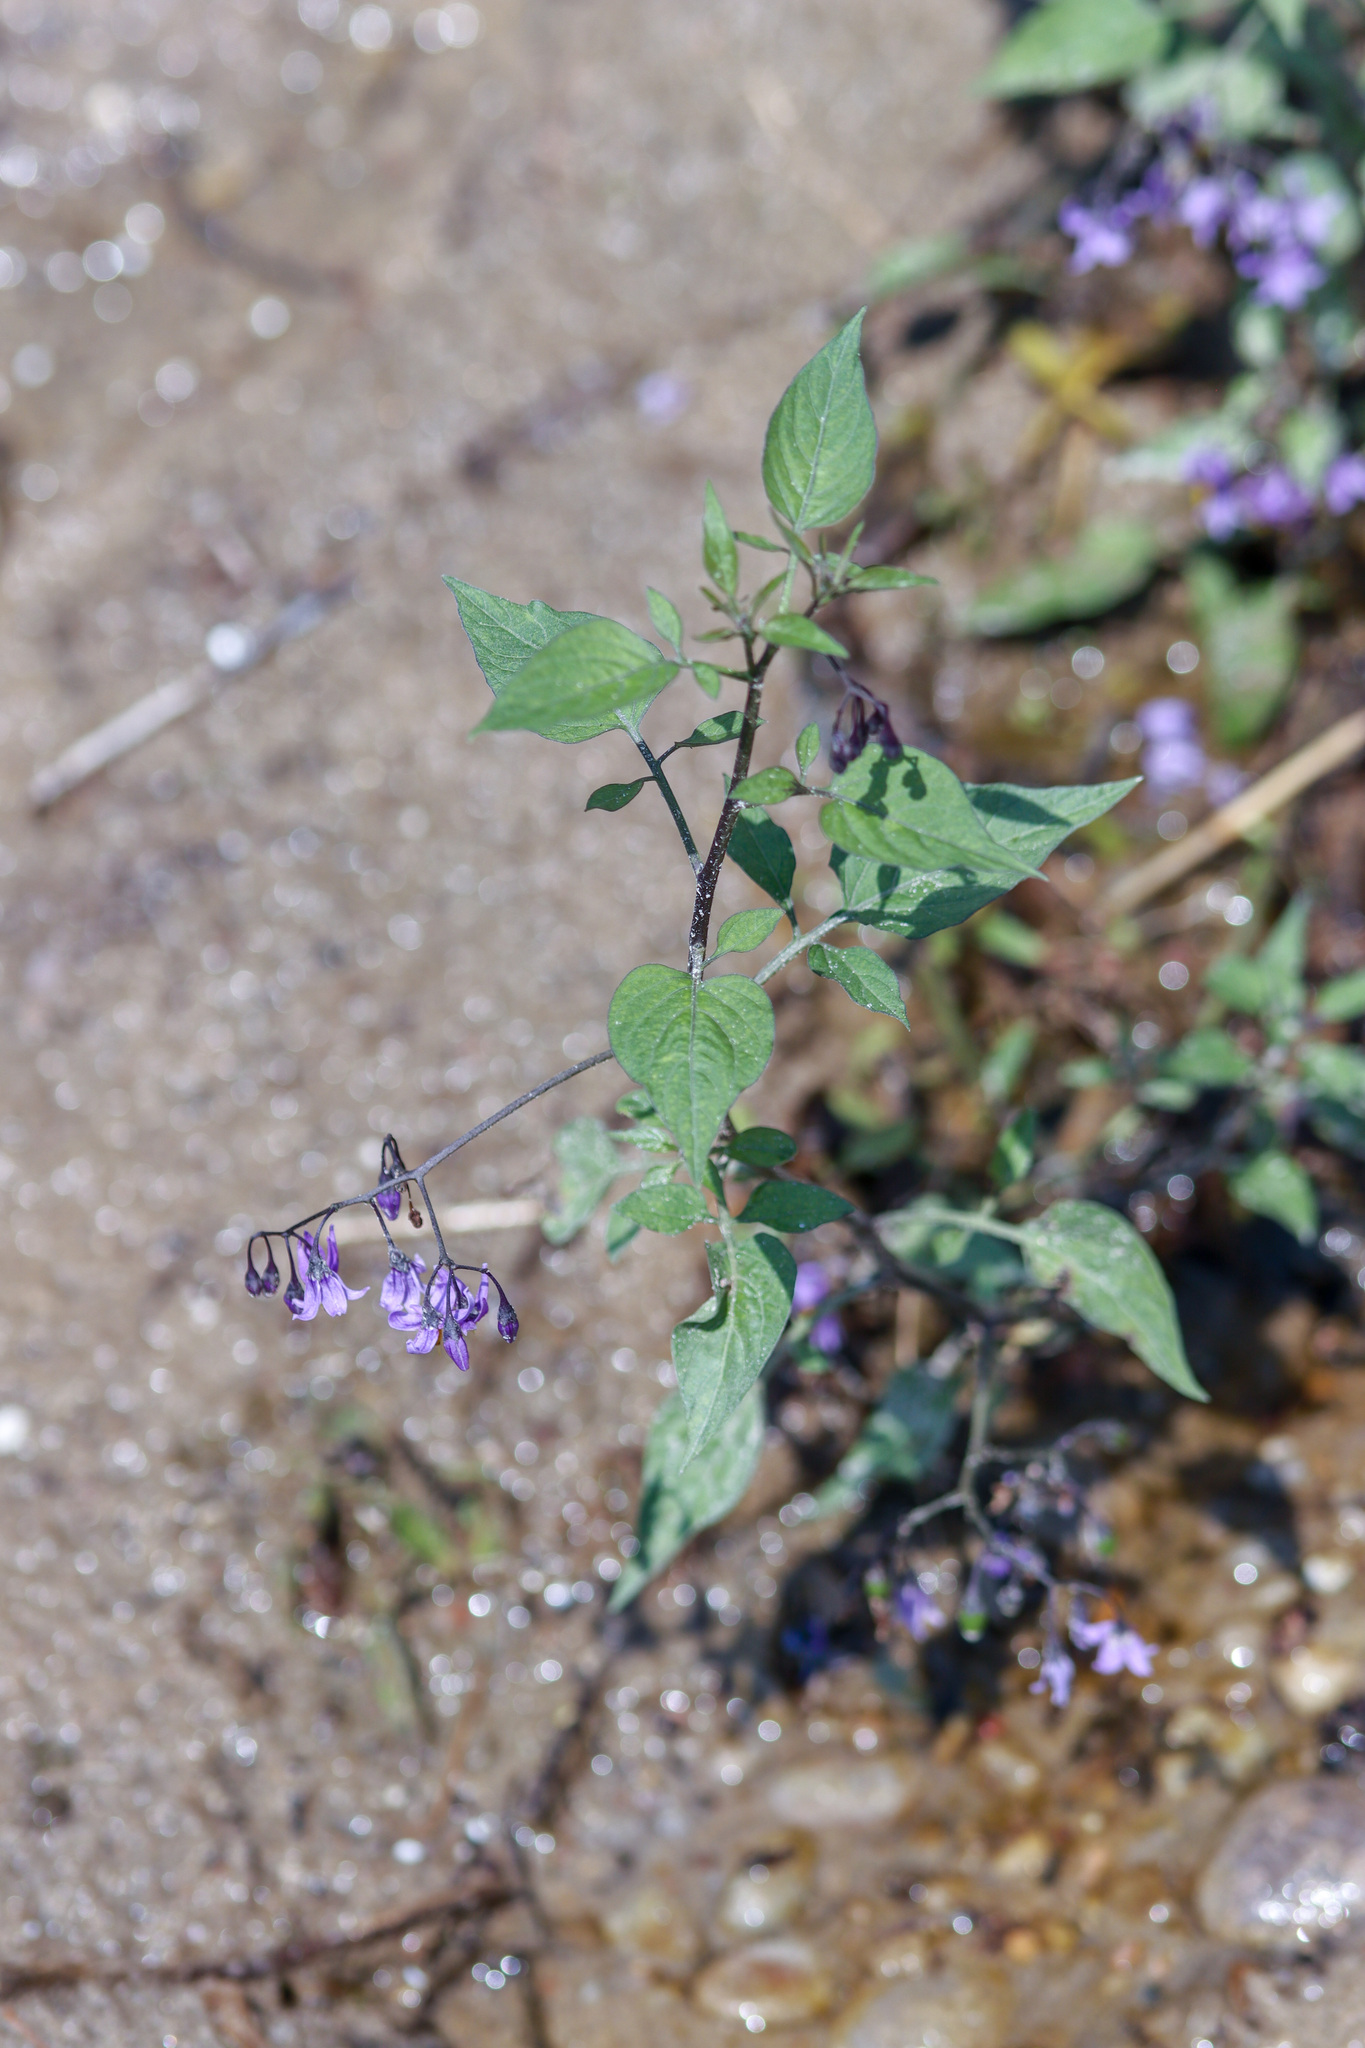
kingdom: Plantae
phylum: Tracheophyta
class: Magnoliopsida
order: Solanales
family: Solanaceae
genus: Solanum
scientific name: Solanum dulcamara
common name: Climbing nightshade
